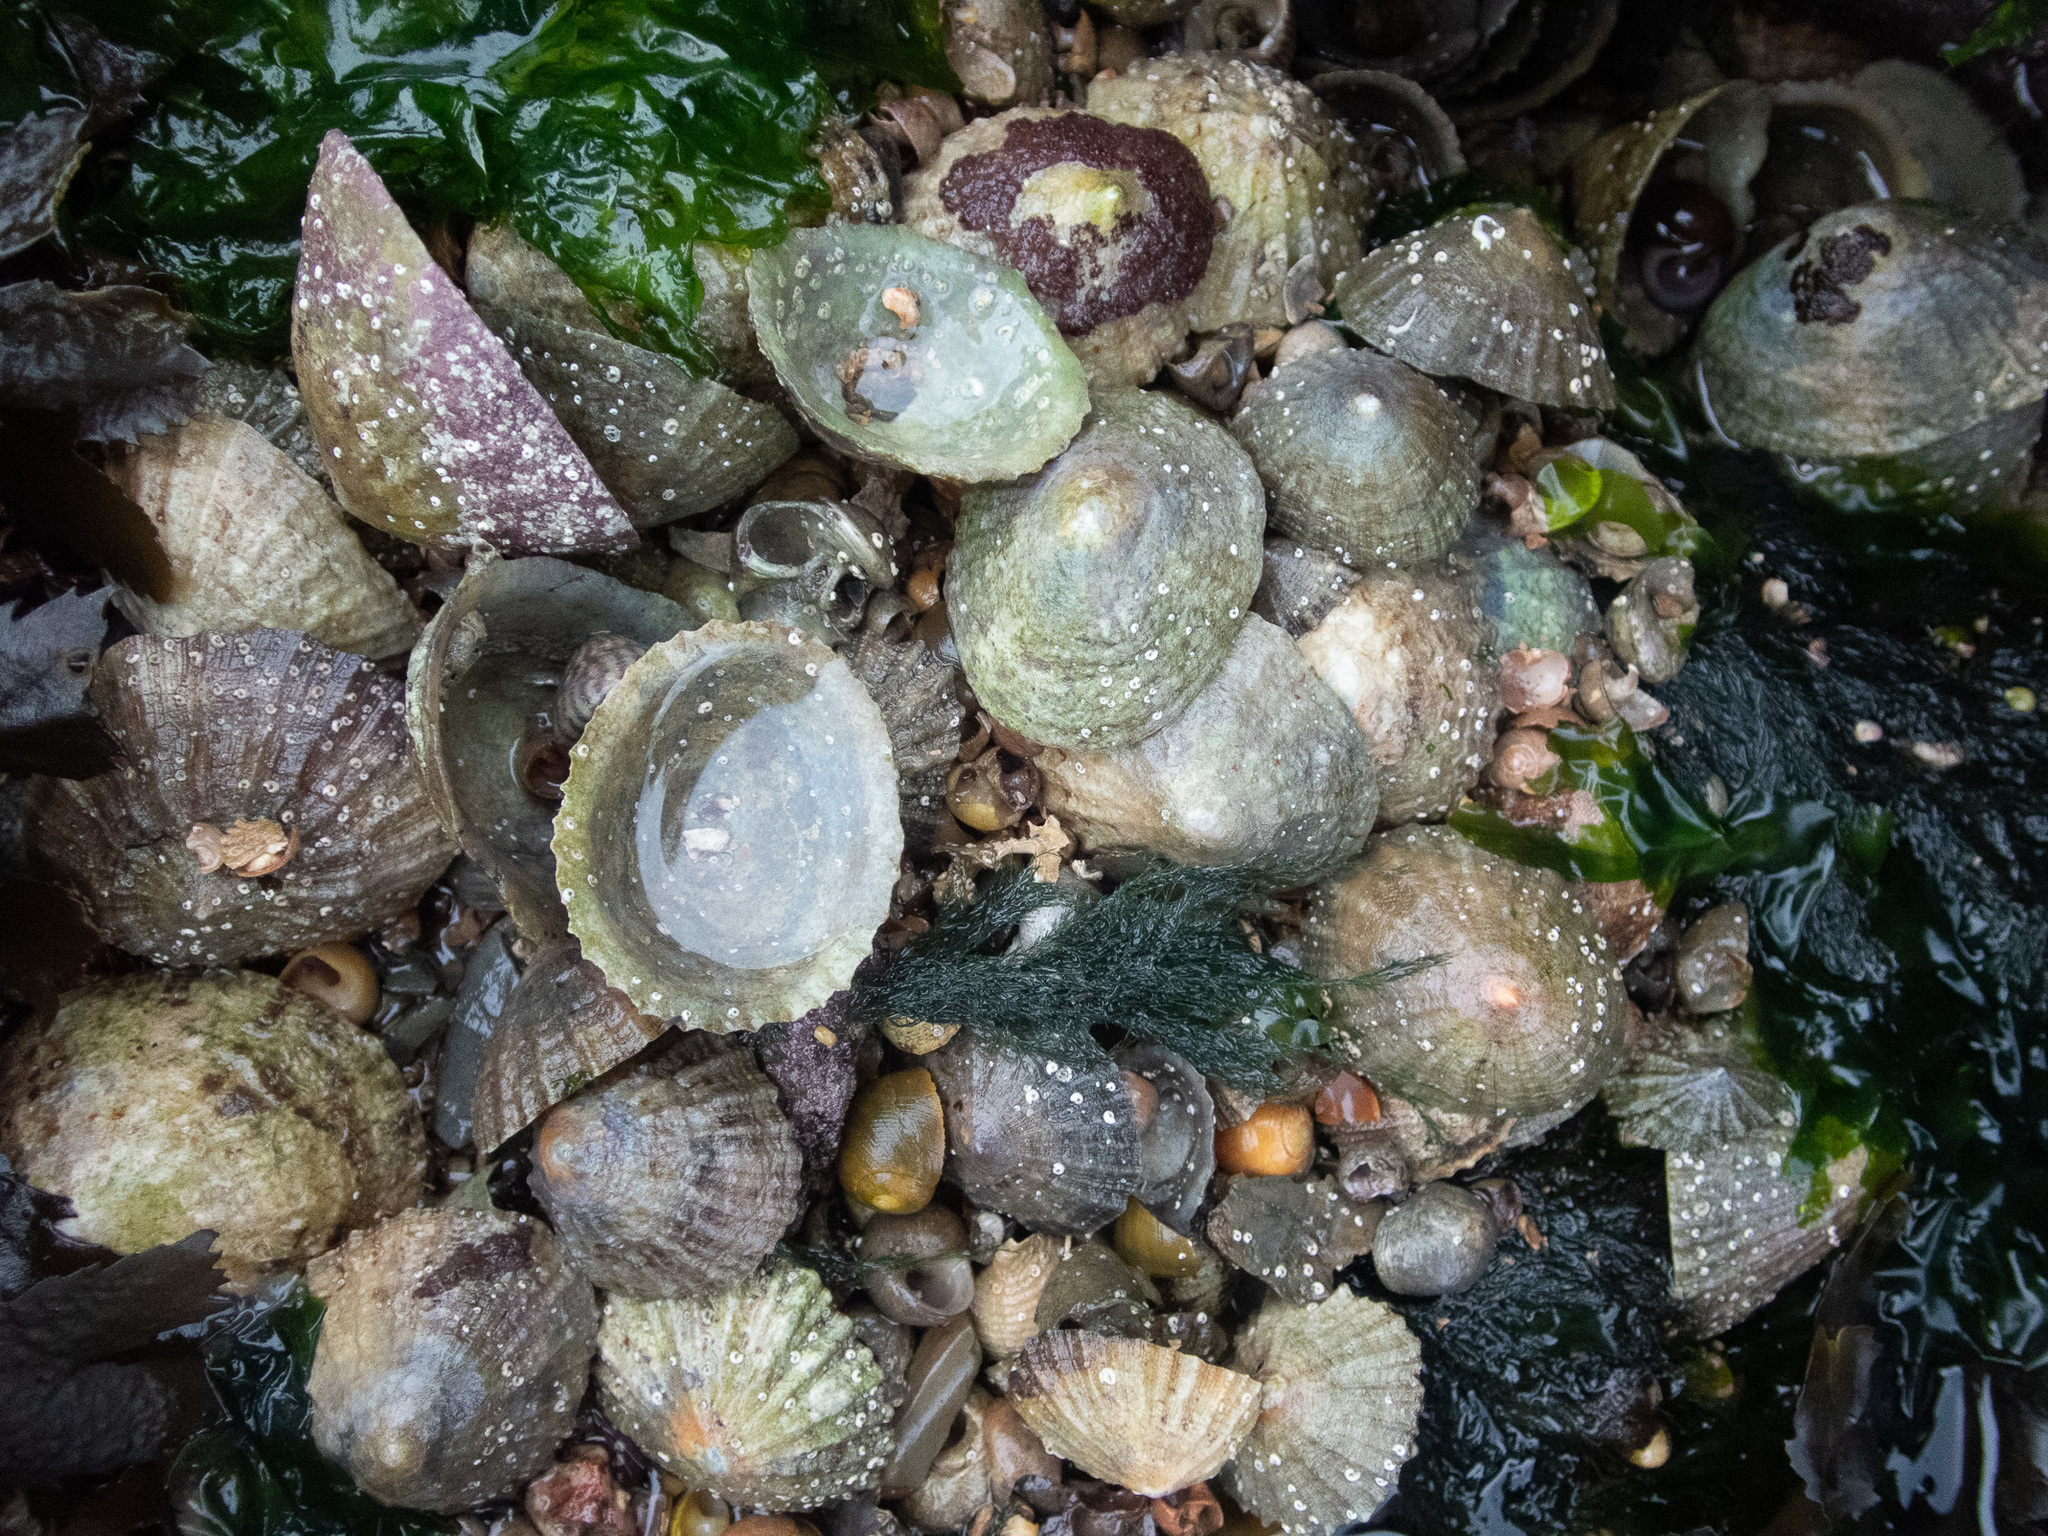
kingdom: Animalia
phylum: Mollusca
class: Gastropoda
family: Patellidae
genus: Patella
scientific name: Patella vulgata
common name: Common limpet
